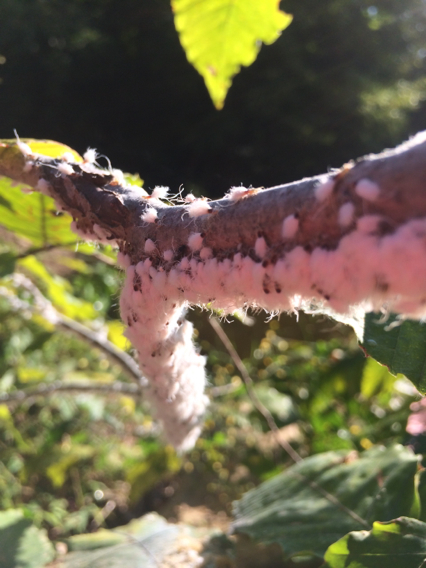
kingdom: Animalia
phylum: Arthropoda
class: Insecta
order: Hemiptera
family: Aphididae
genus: Grylloprociphilus
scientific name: Grylloprociphilus imbricator
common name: Beech blight aphid
